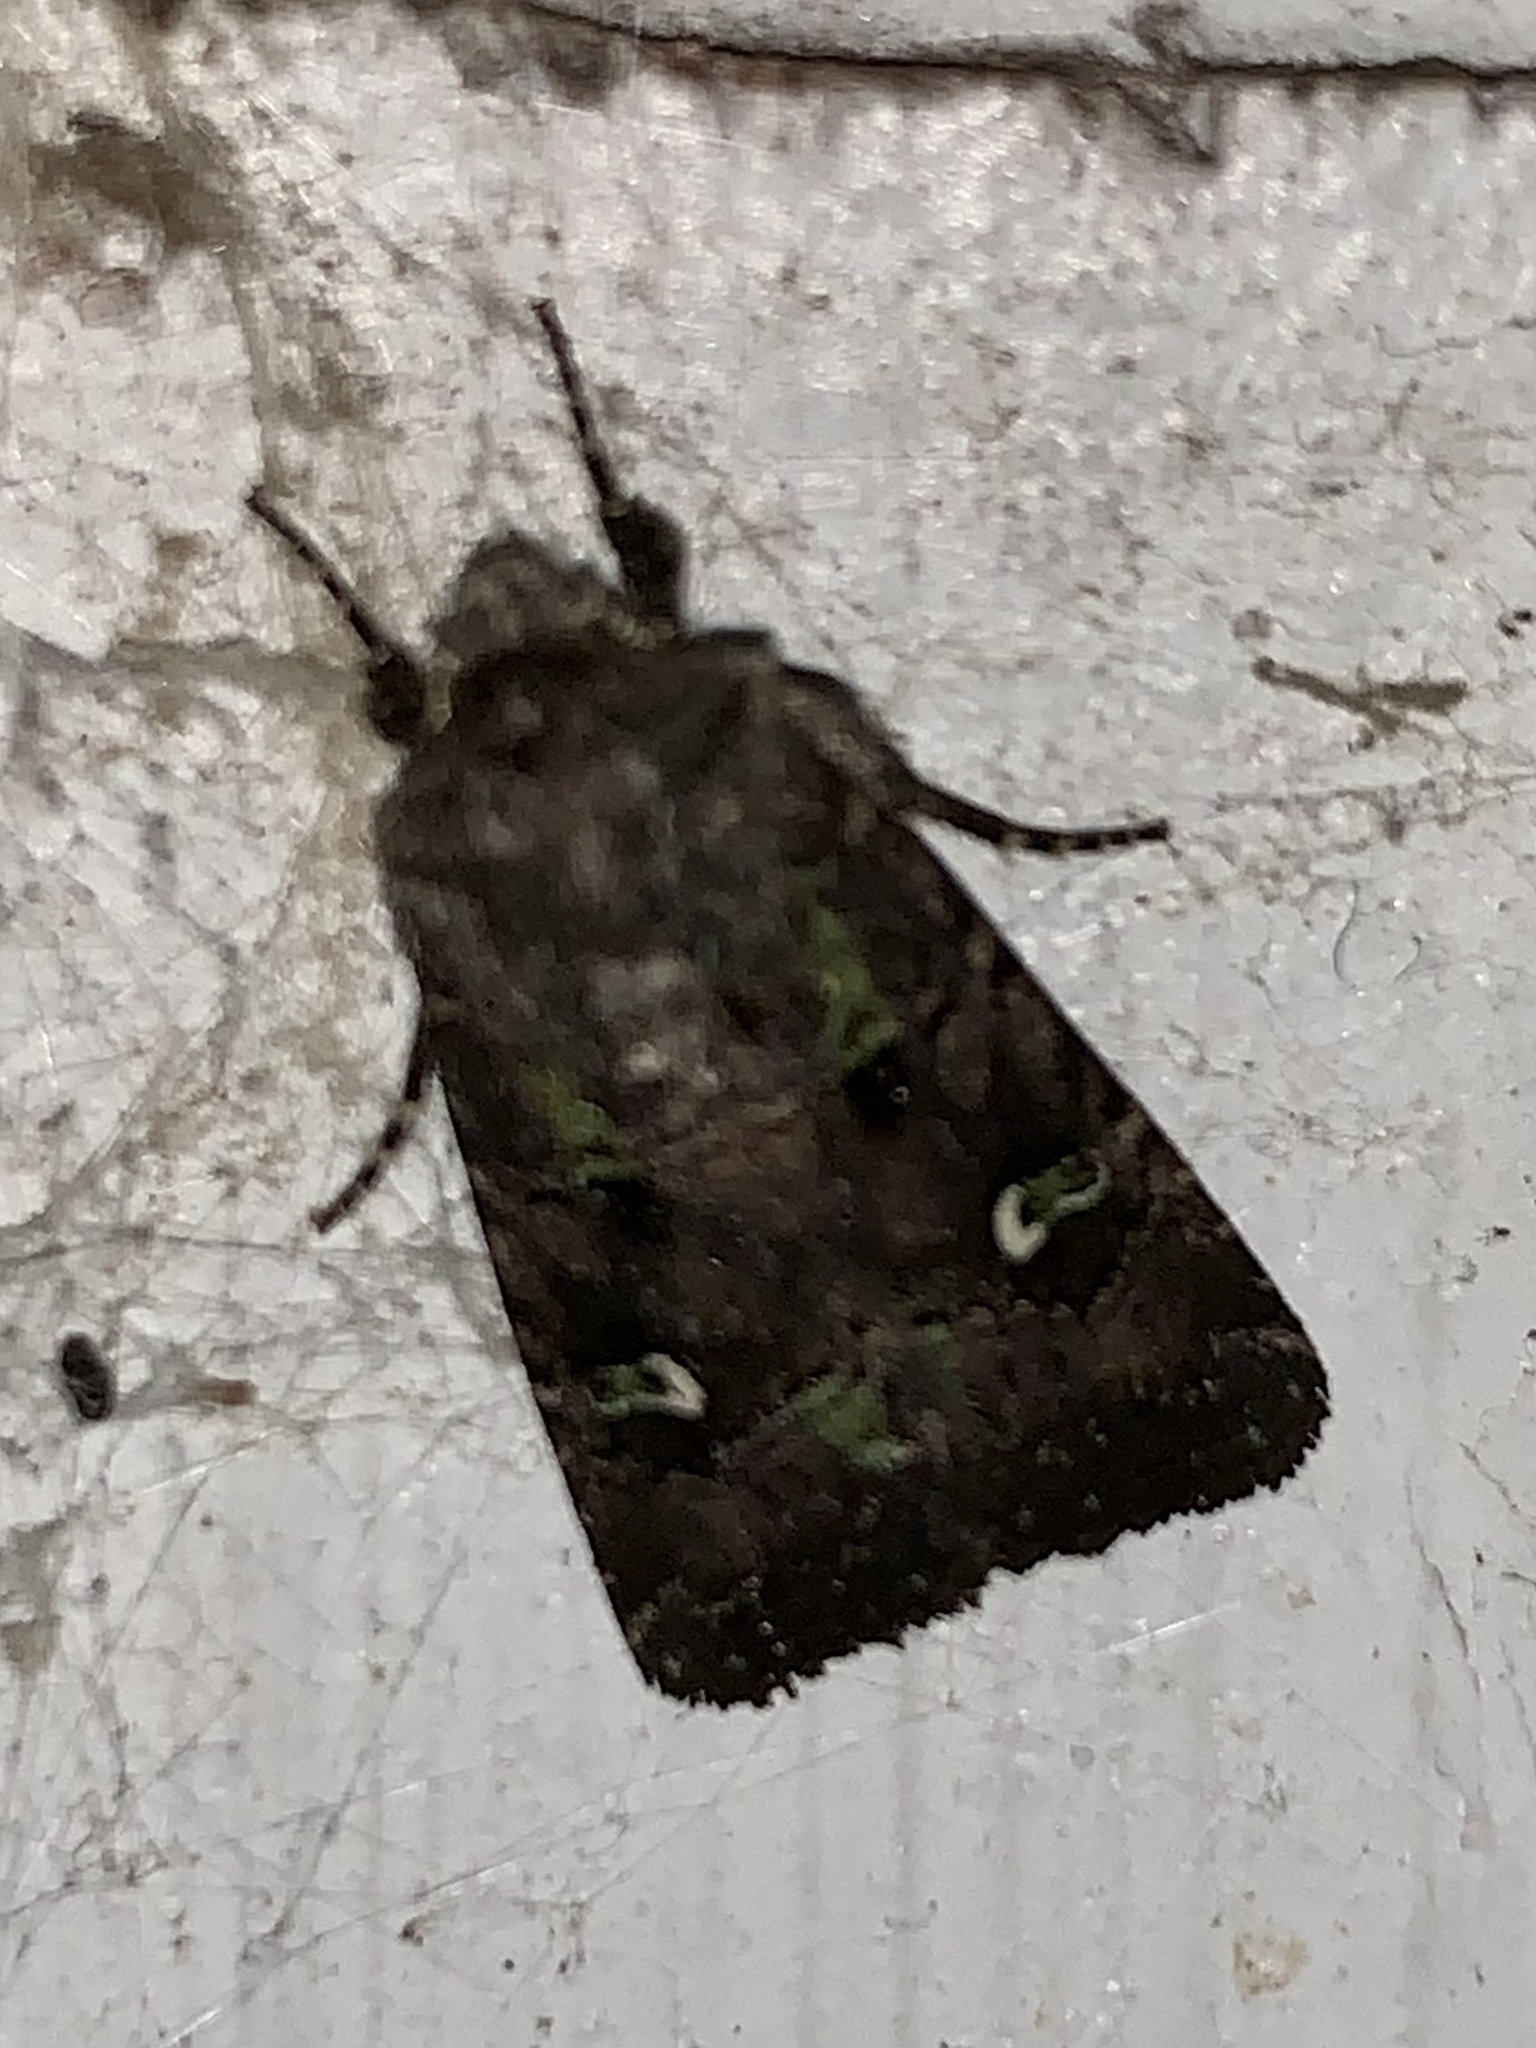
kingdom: Animalia
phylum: Arthropoda
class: Insecta
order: Lepidoptera
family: Noctuidae
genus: Lacinipolia
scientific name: Lacinipolia renigera
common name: Kidney-spotted minor
